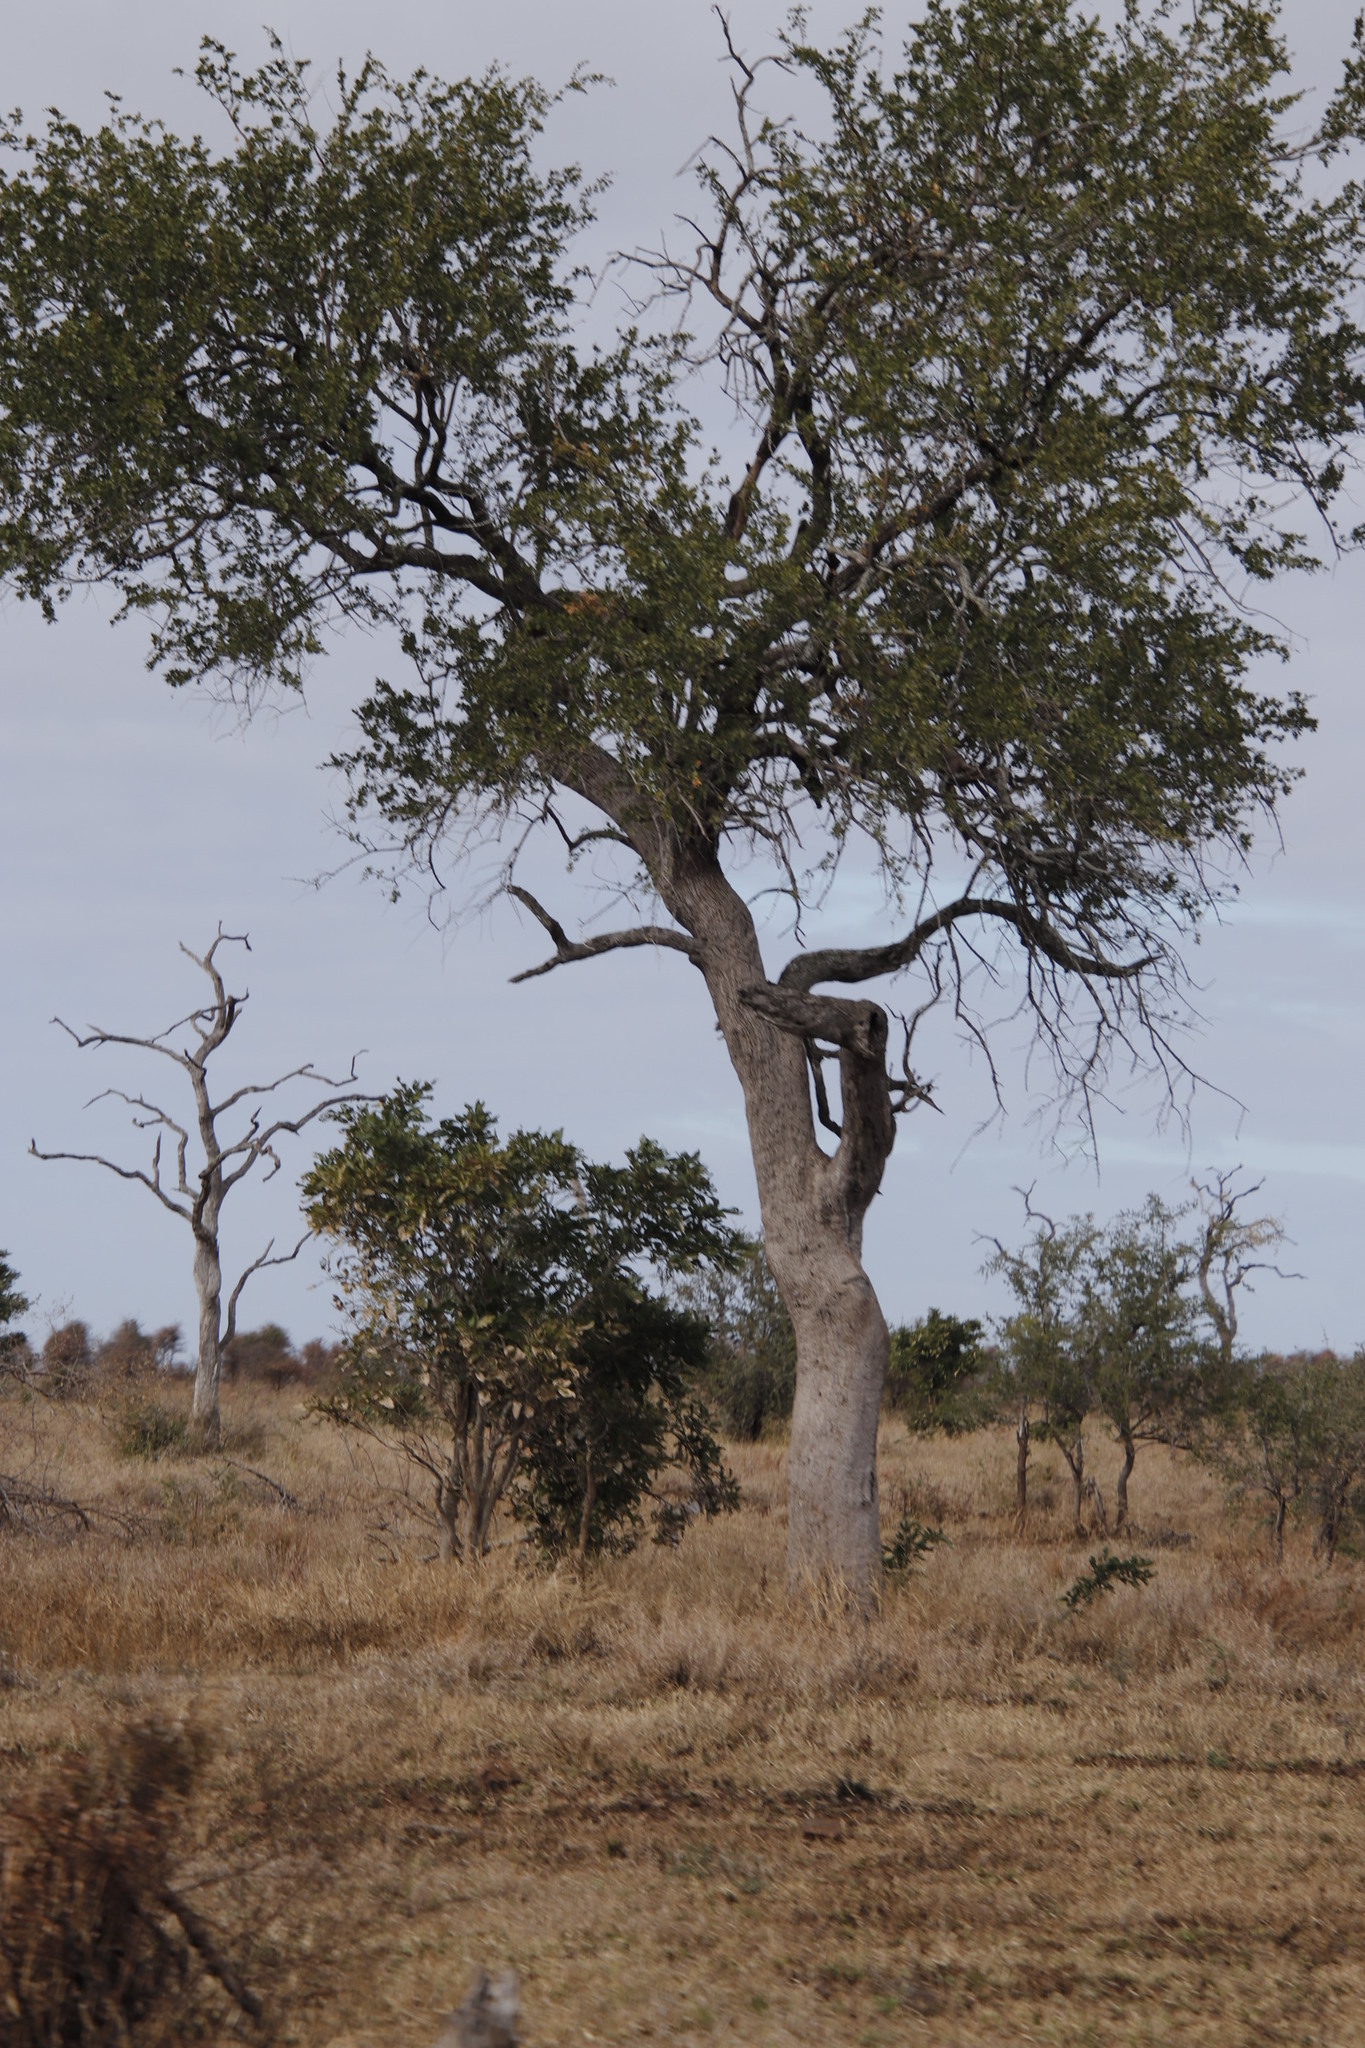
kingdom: Plantae
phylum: Tracheophyta
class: Magnoliopsida
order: Myrtales
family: Combretaceae
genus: Combretum
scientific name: Combretum imberbe
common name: Leadwood
